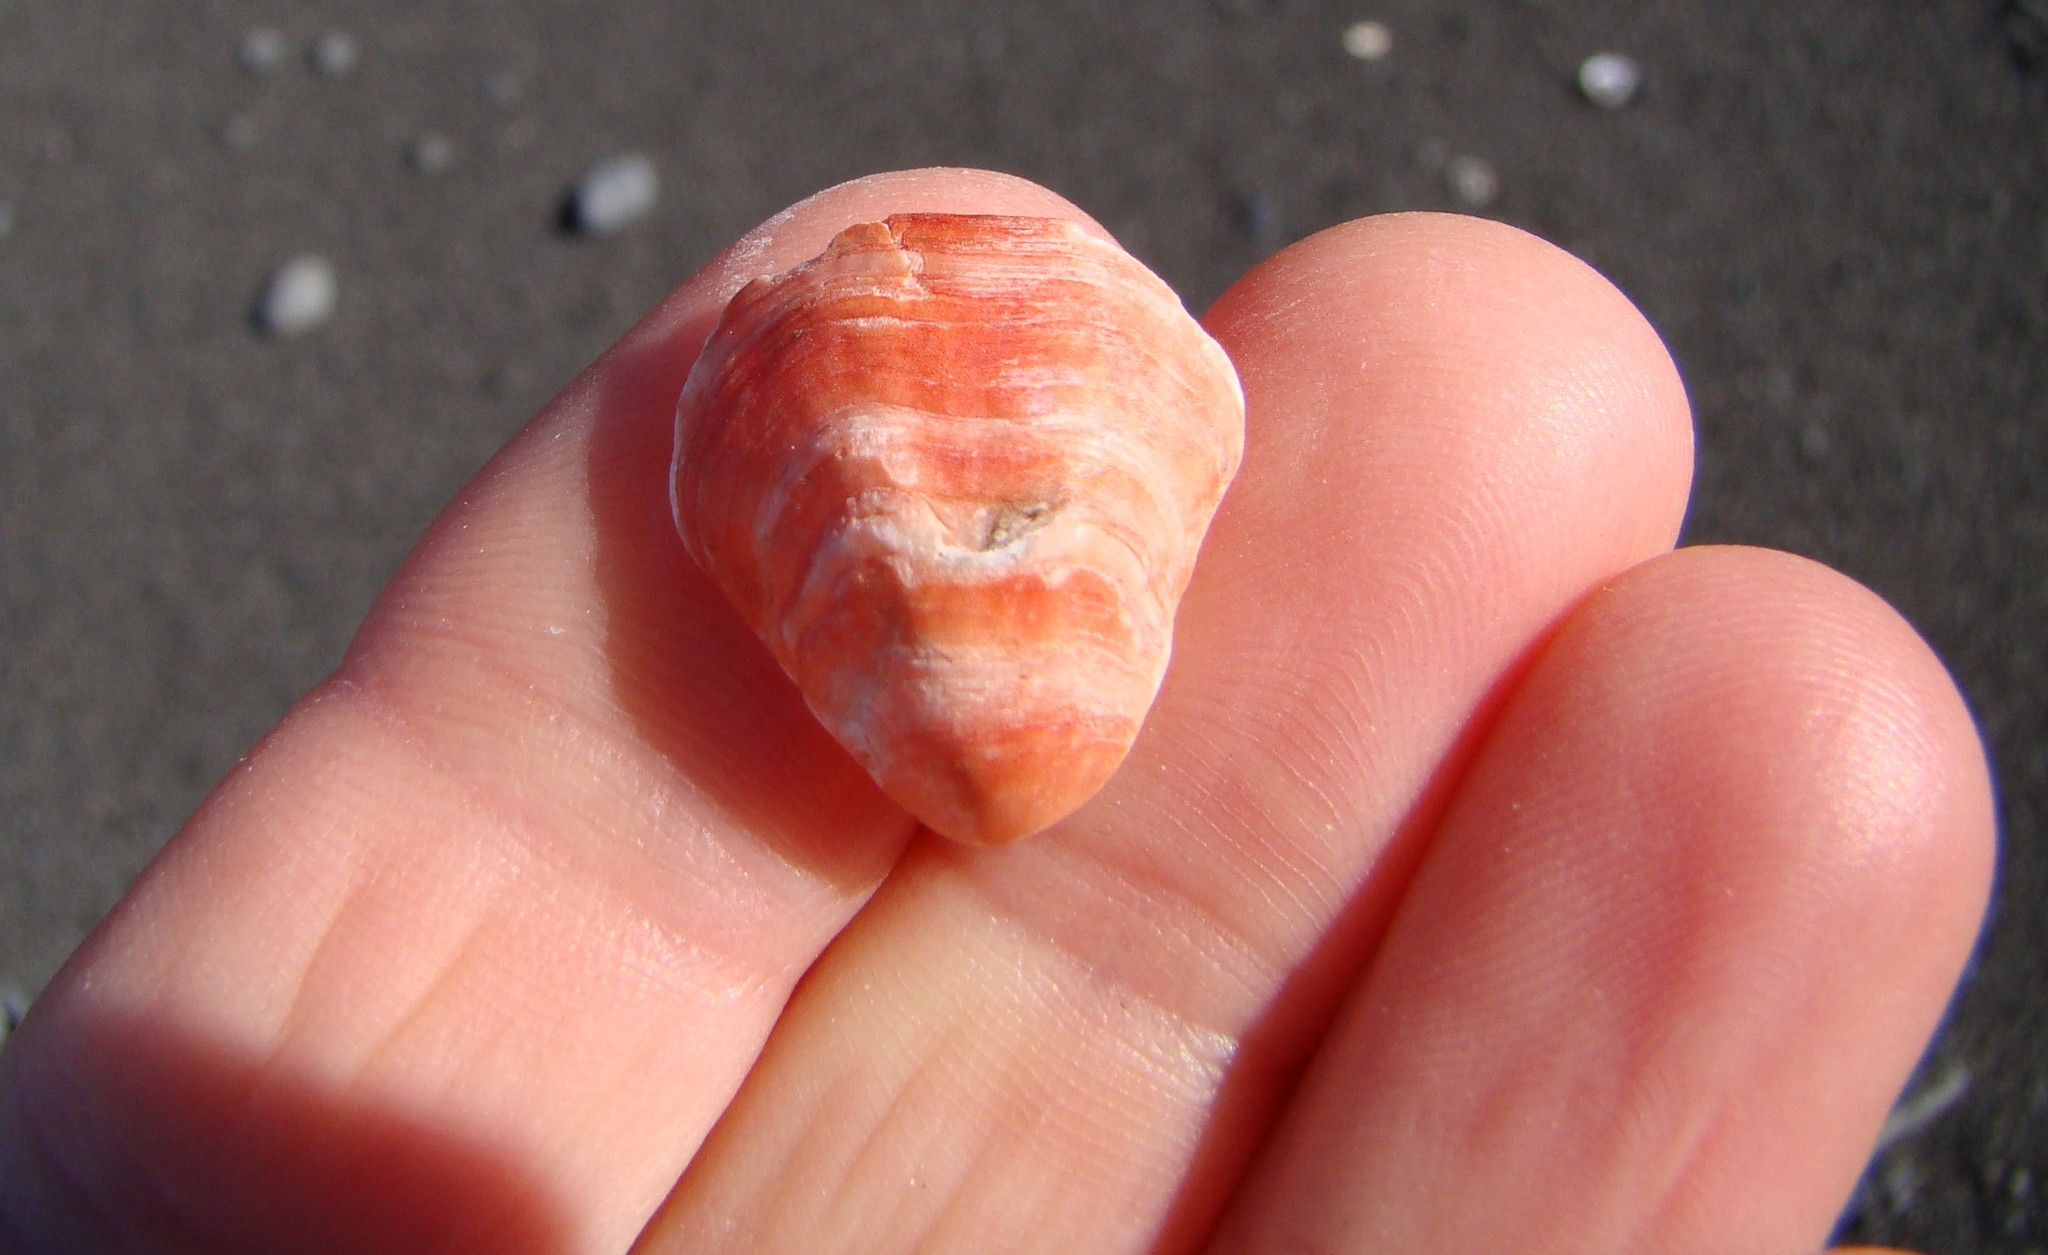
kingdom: Animalia
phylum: Brachiopoda
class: Rhynchonellata
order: Terebratulida
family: Terebratellidae
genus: Calloria
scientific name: Calloria inconspicua
